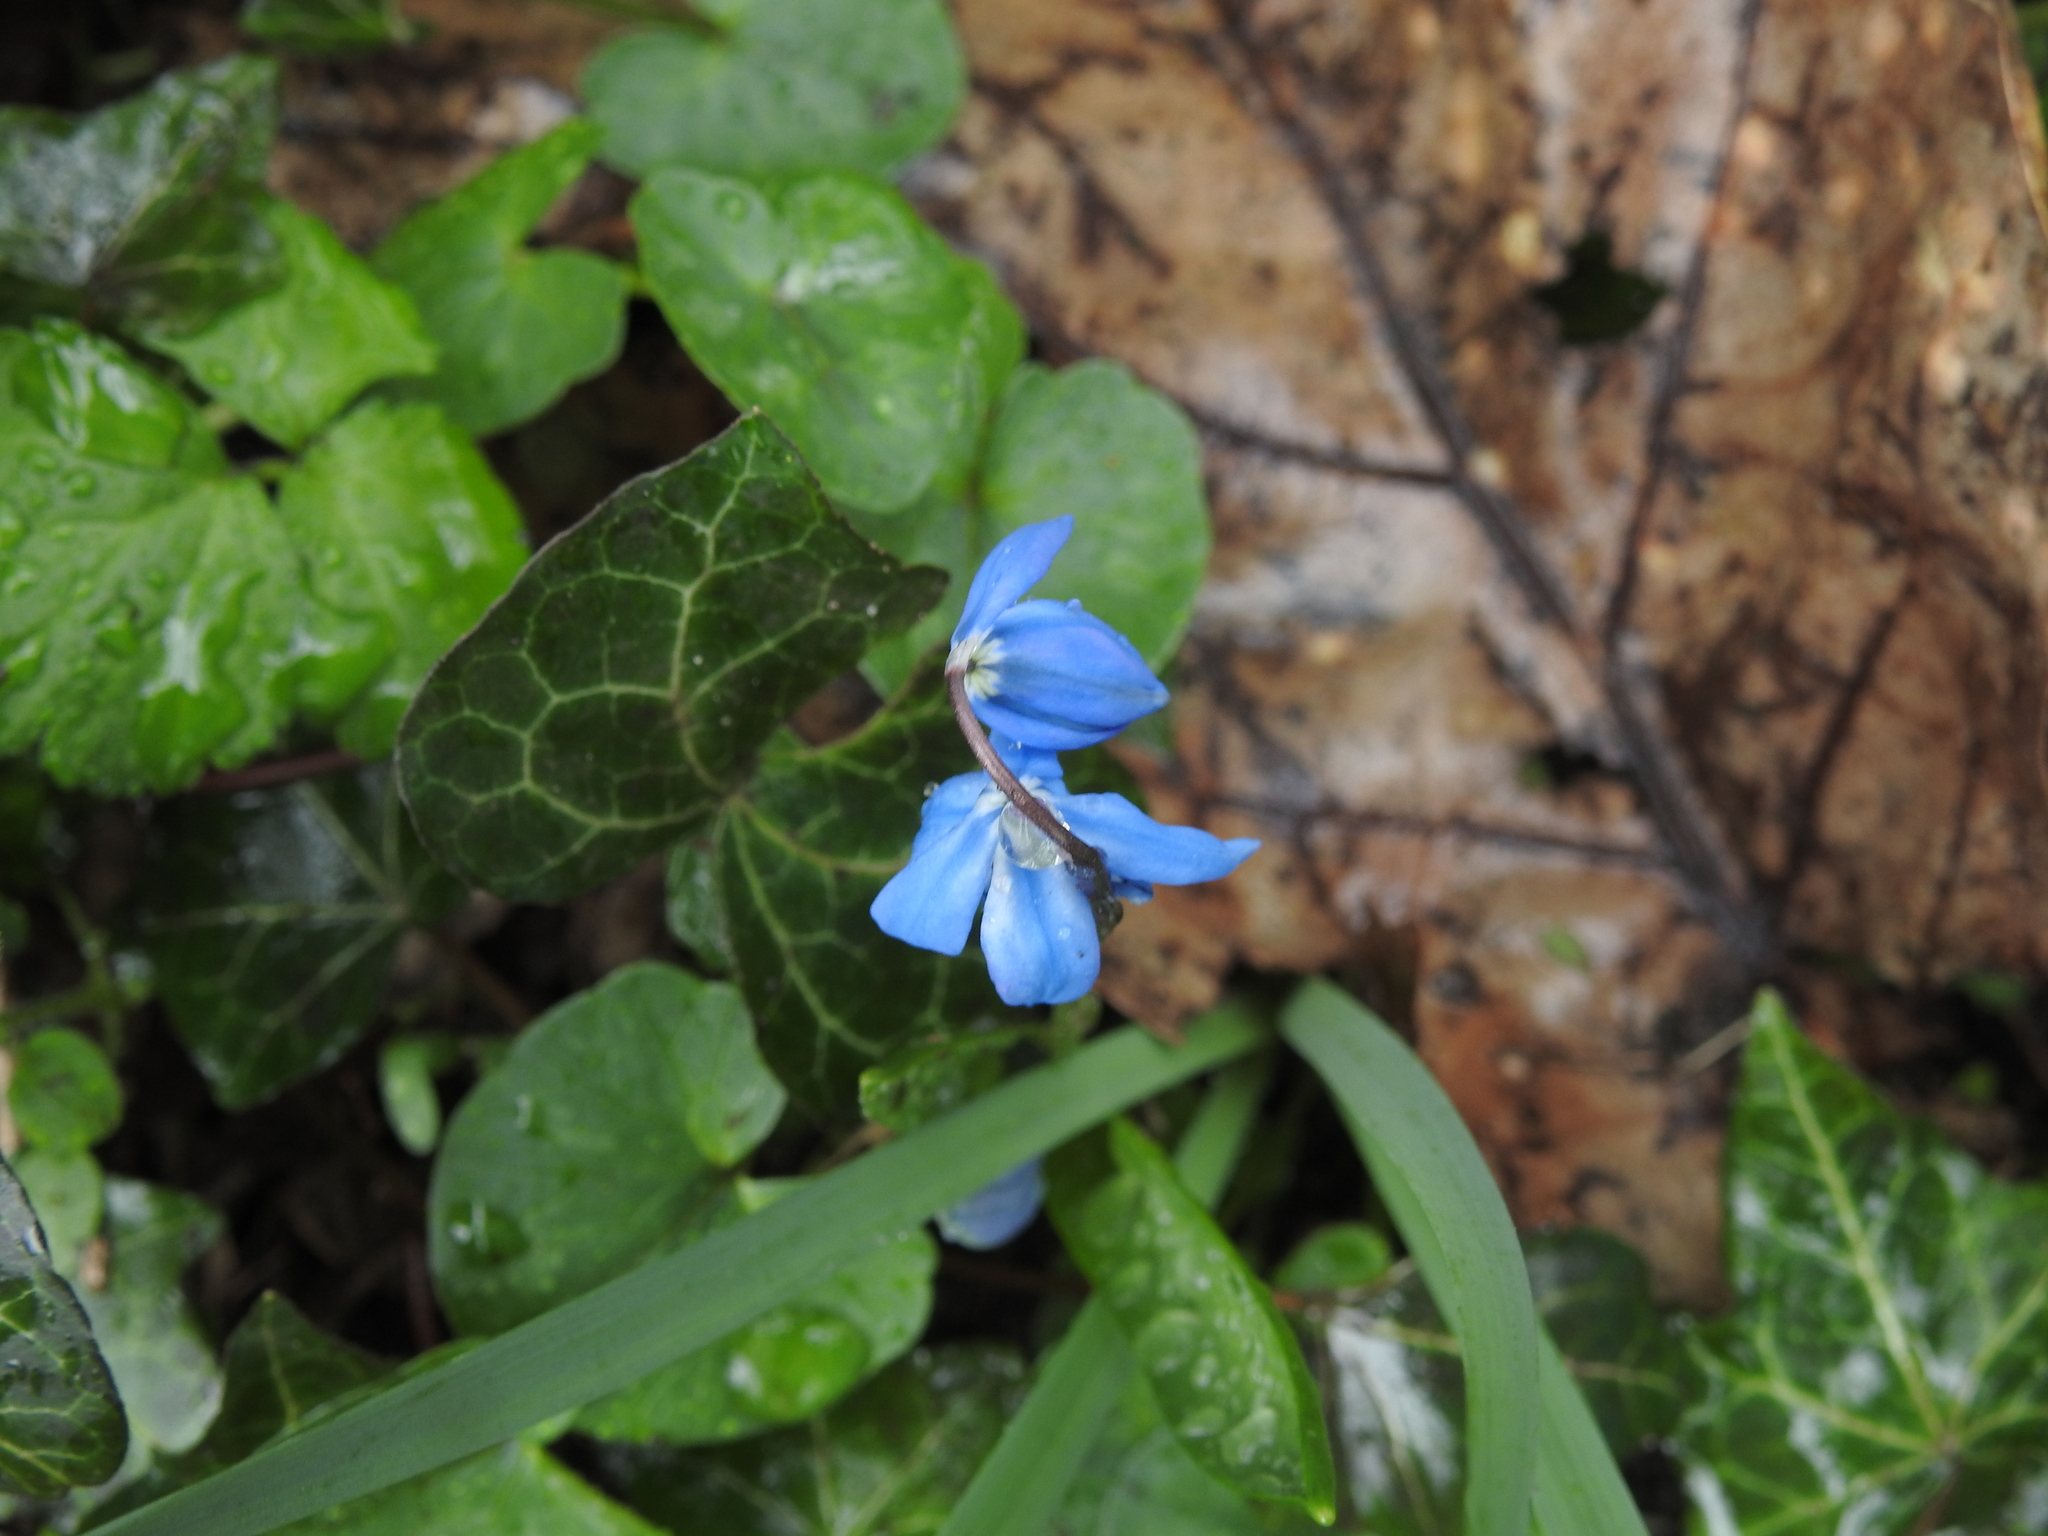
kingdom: Plantae
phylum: Tracheophyta
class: Liliopsida
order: Asparagales
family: Asparagaceae
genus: Scilla
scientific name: Scilla siberica
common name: Siberian squill
